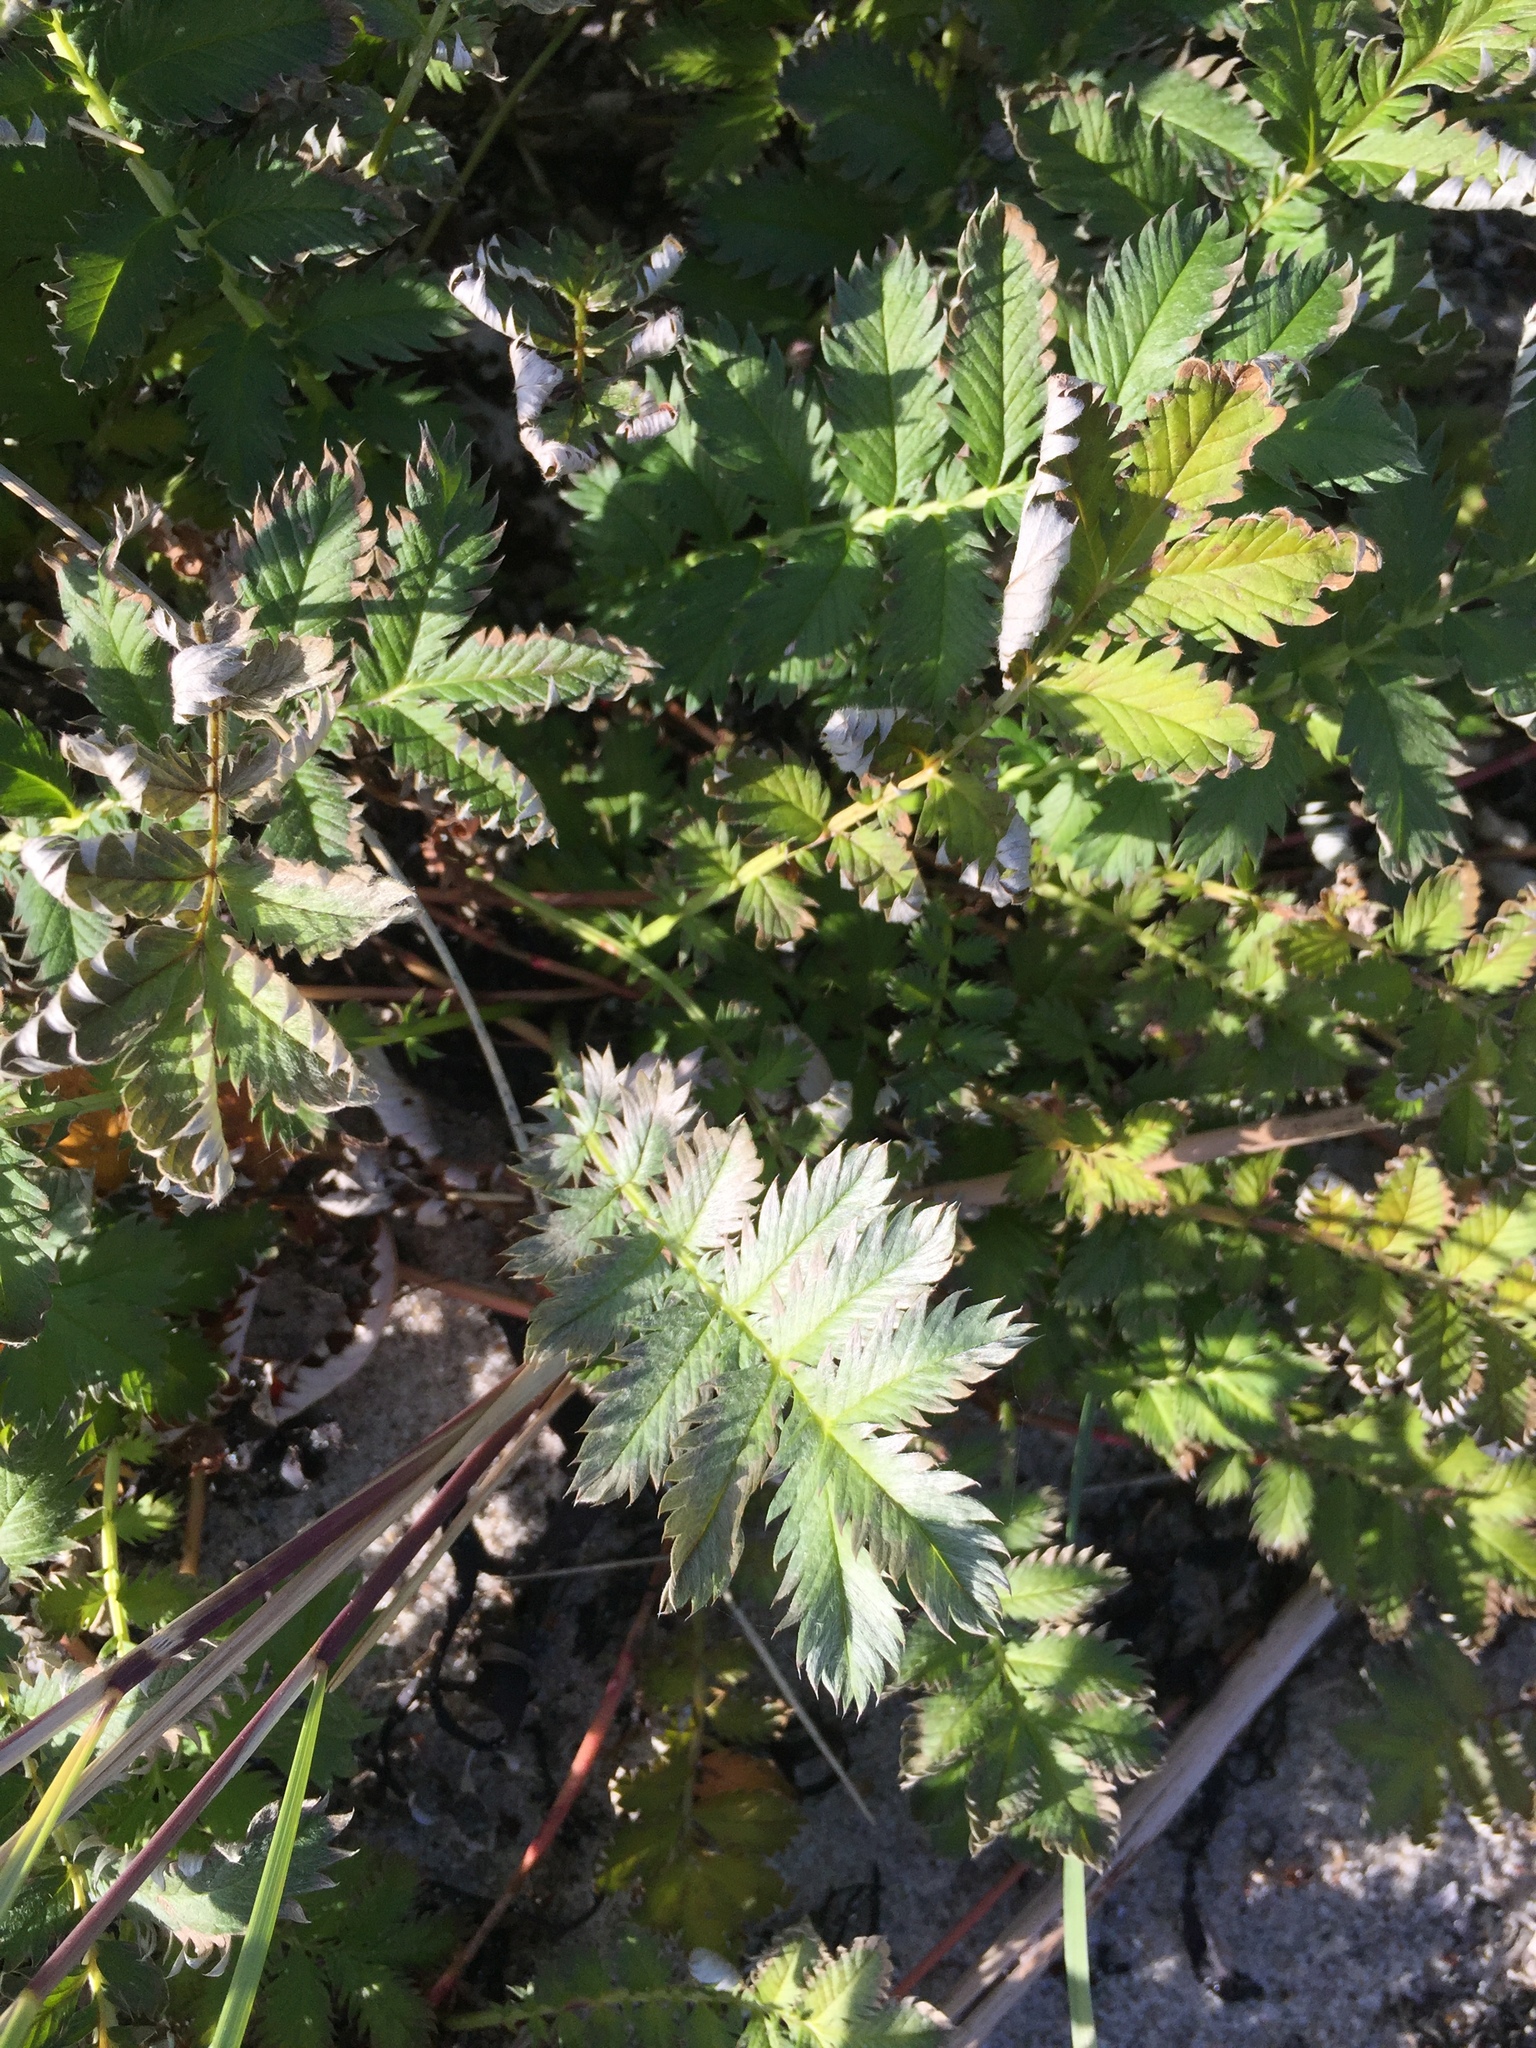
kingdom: Plantae
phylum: Tracheophyta
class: Magnoliopsida
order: Rosales
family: Rosaceae
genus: Argentina
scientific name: Argentina anserina
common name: Common silverweed
